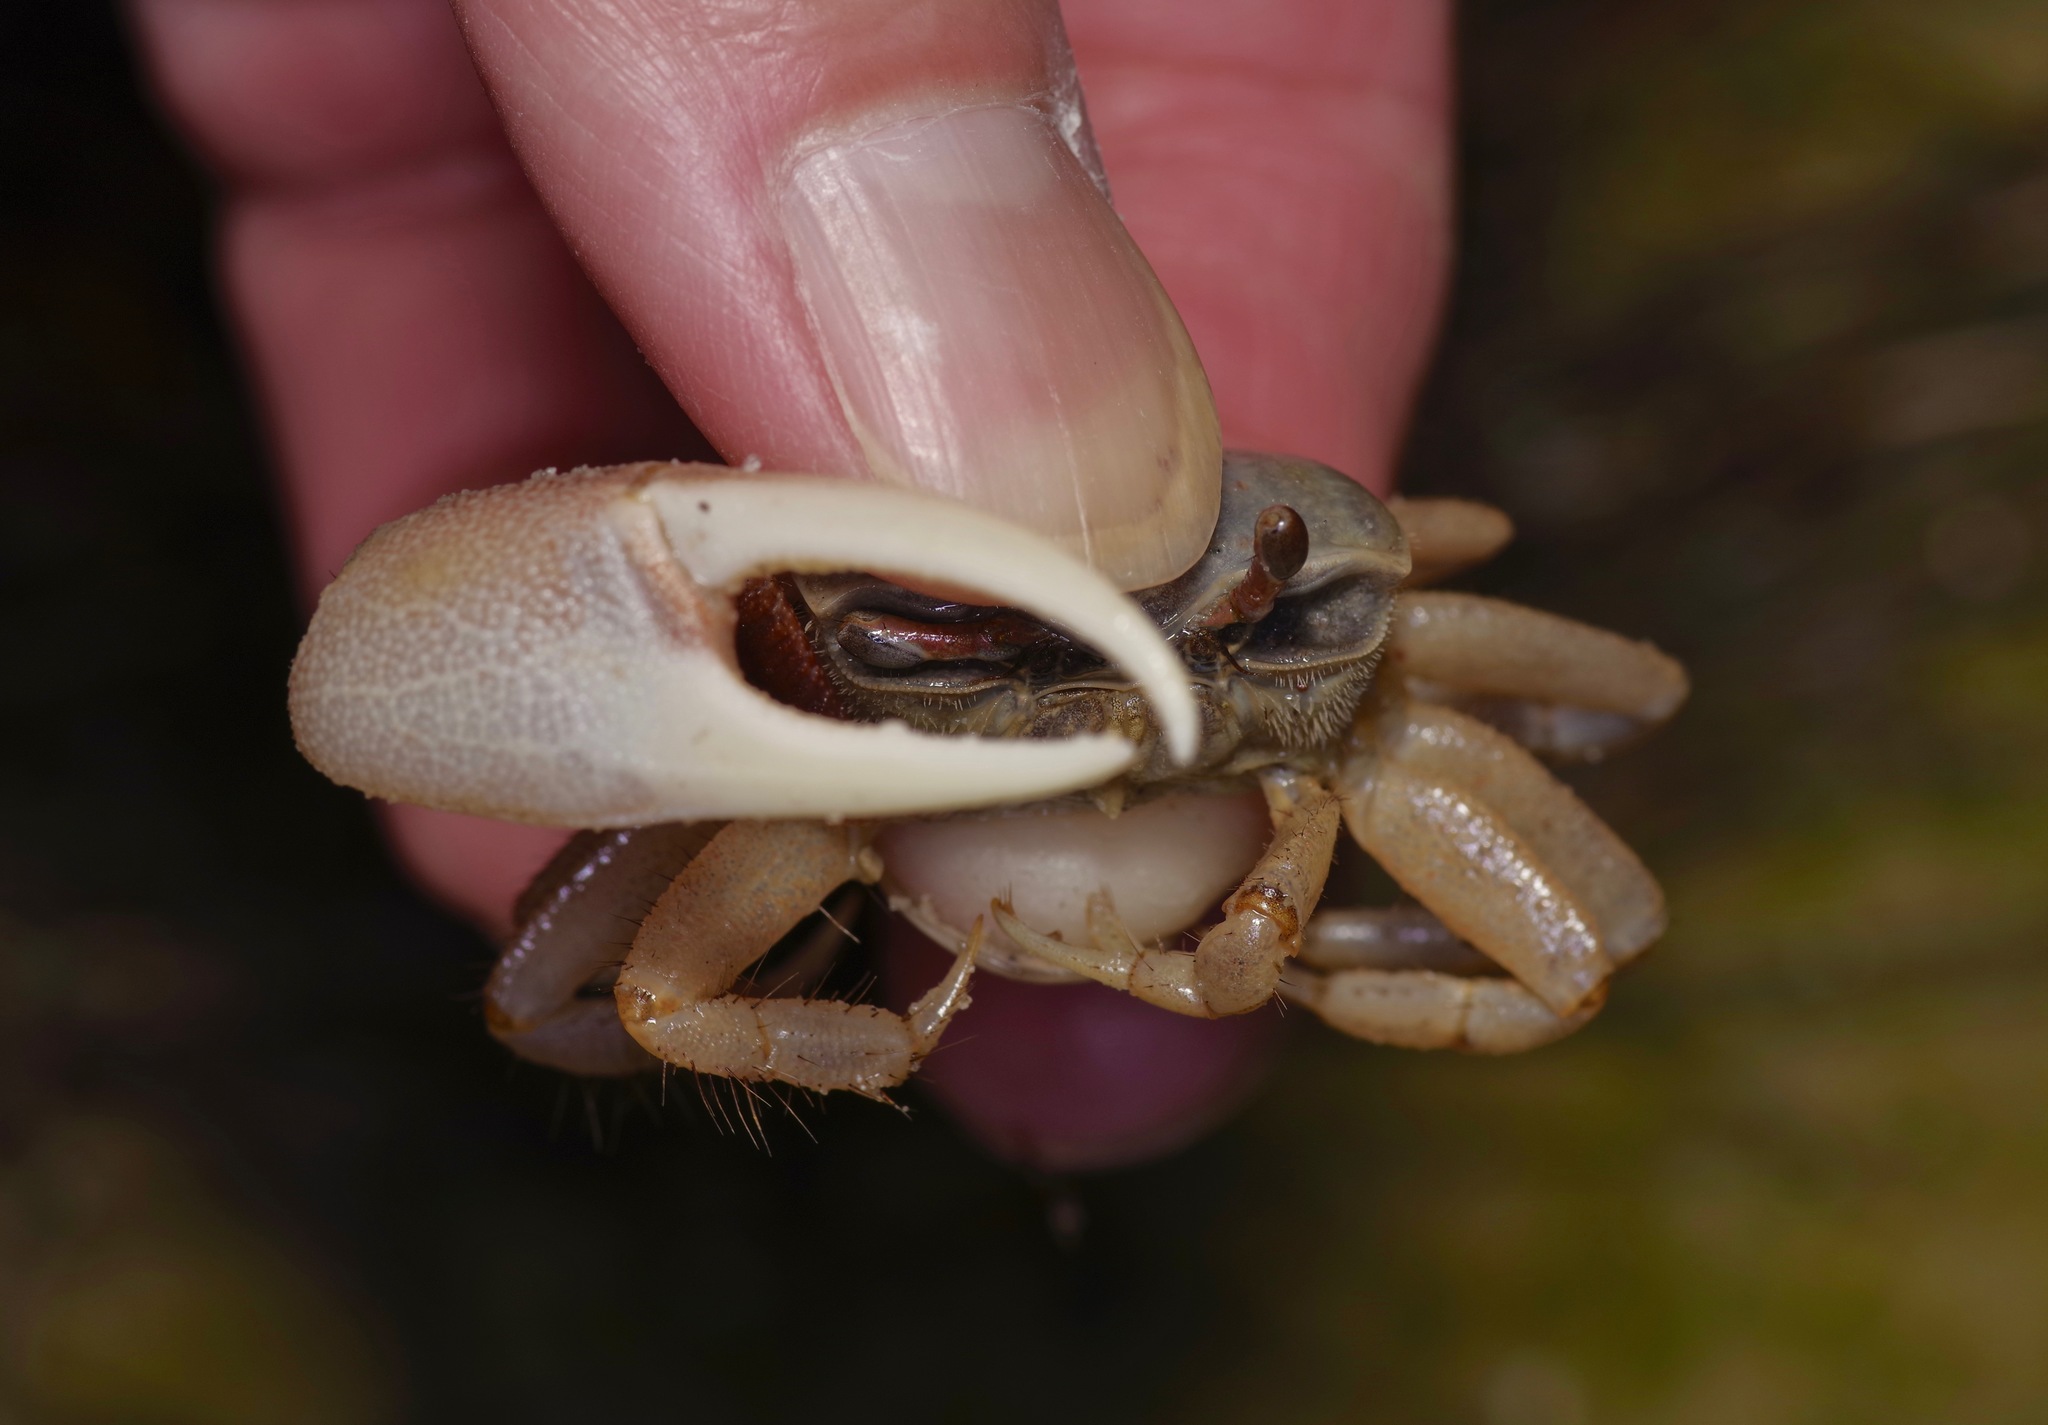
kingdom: Animalia
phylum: Arthropoda
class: Malacostraca
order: Decapoda
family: Ocypodidae
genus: Leptuca
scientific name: Leptuca panacea
